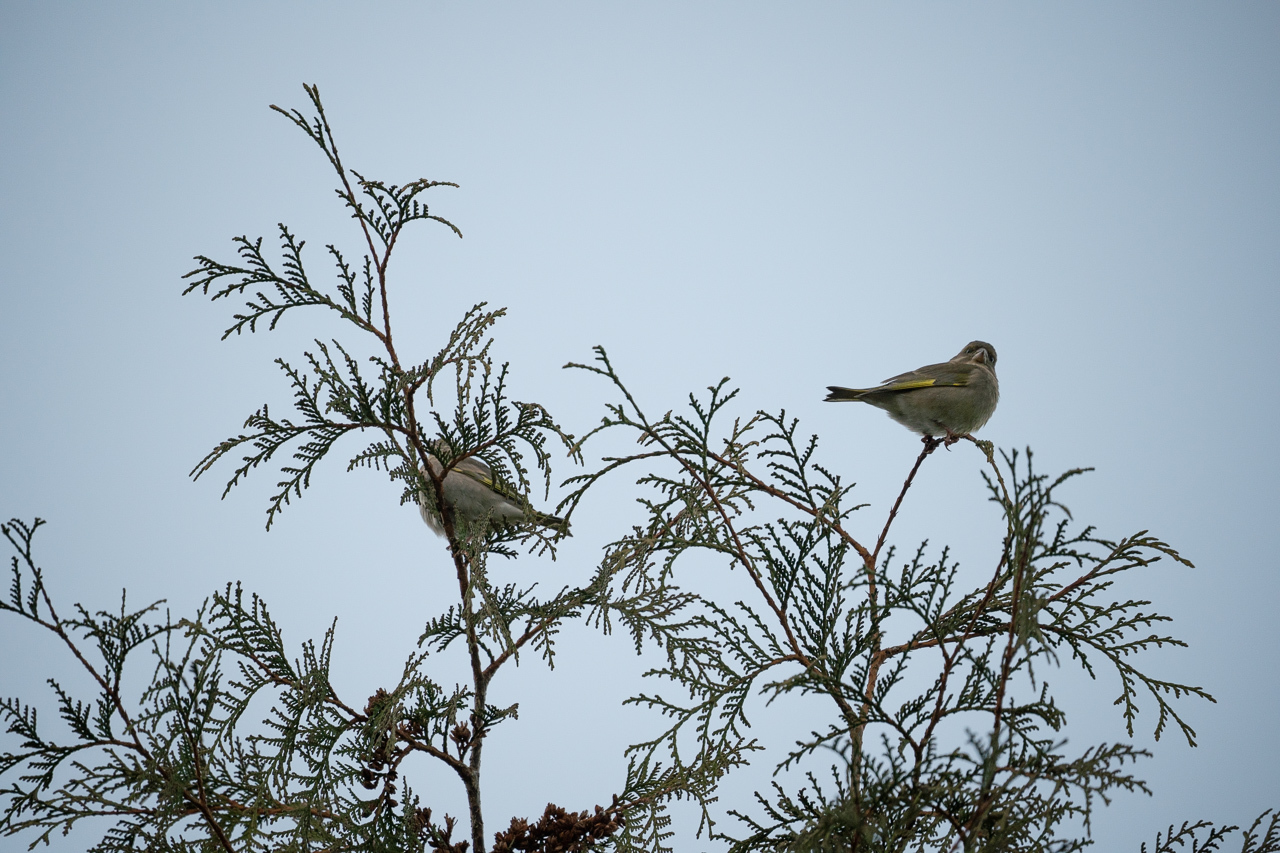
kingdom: Plantae
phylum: Tracheophyta
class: Liliopsida
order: Poales
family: Poaceae
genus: Chloris
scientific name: Chloris chloris
